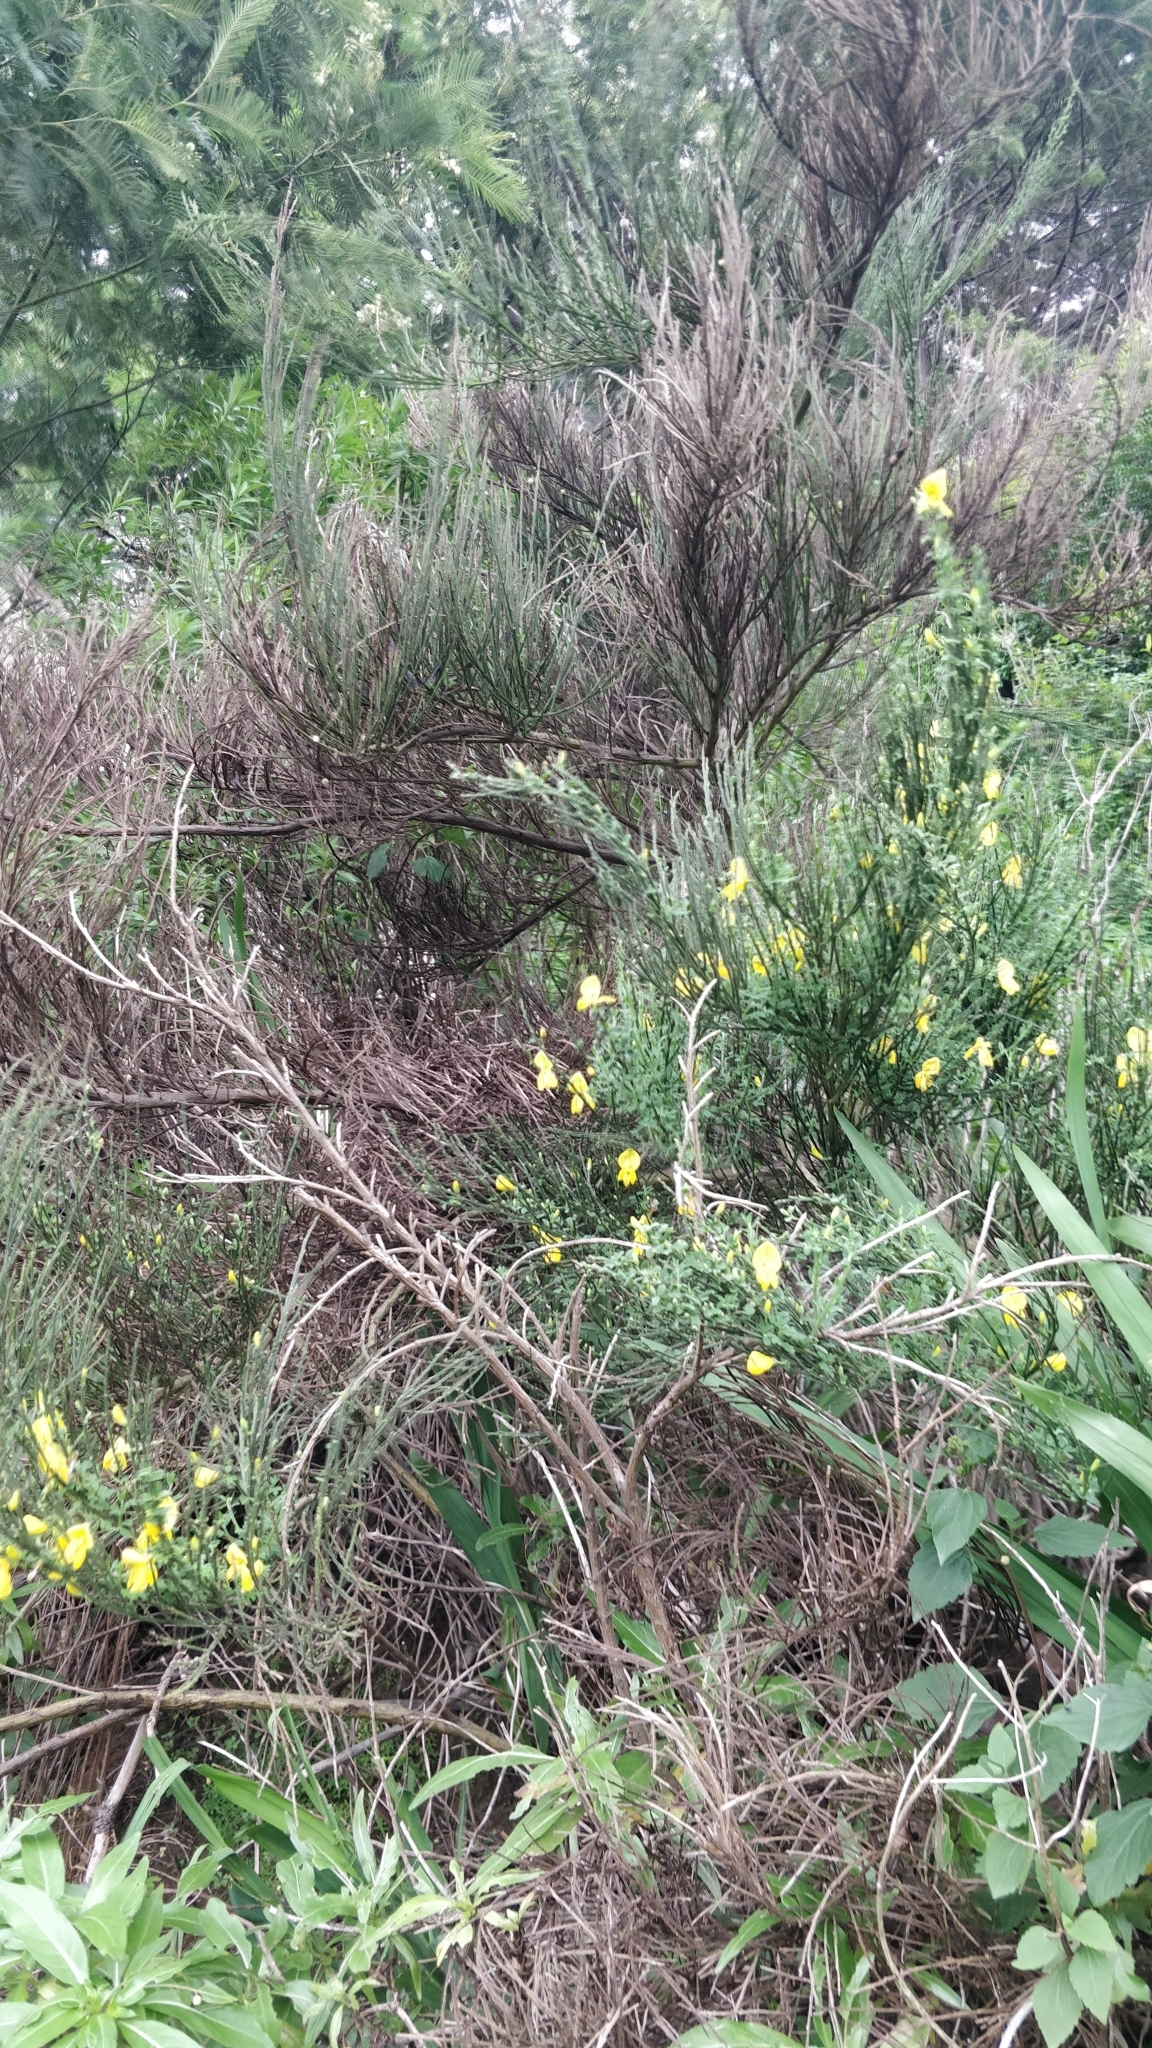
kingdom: Plantae
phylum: Tracheophyta
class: Magnoliopsida
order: Fabales
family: Fabaceae
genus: Cytisus
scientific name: Cytisus scoparius
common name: Scotch broom
